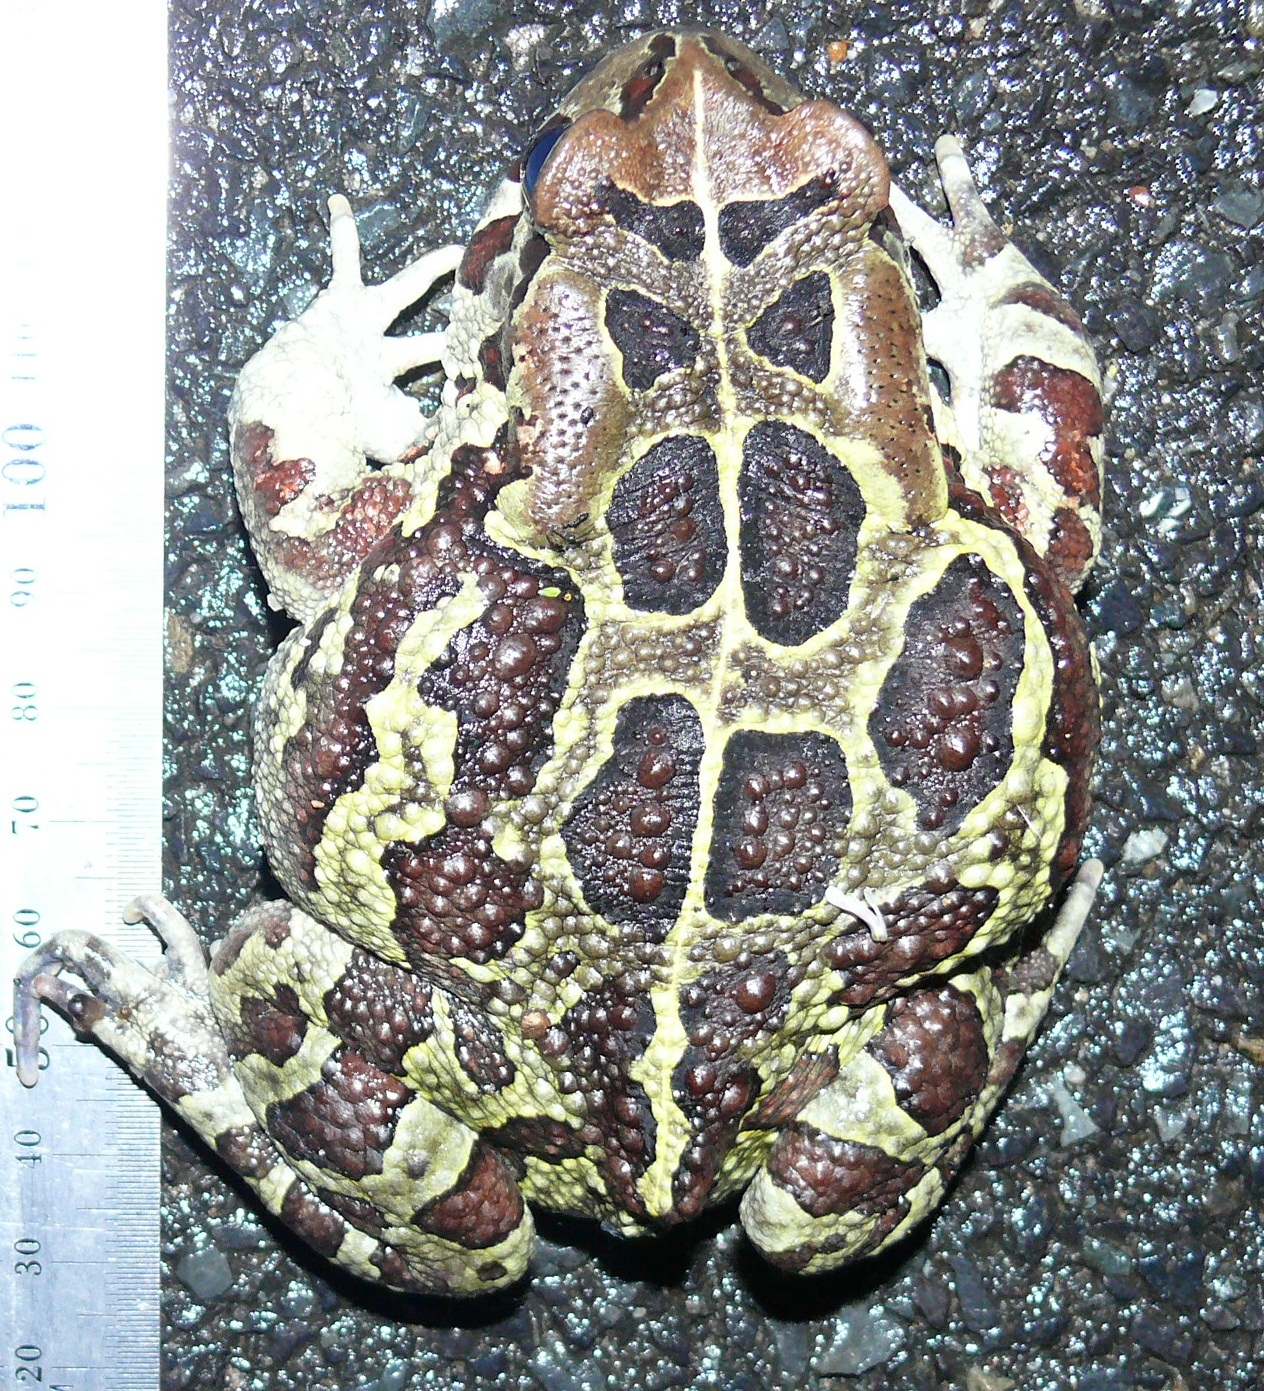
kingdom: Animalia
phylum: Chordata
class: Amphibia
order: Anura
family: Bufonidae
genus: Sclerophrys
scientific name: Sclerophrys pantherina
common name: Panther toad
